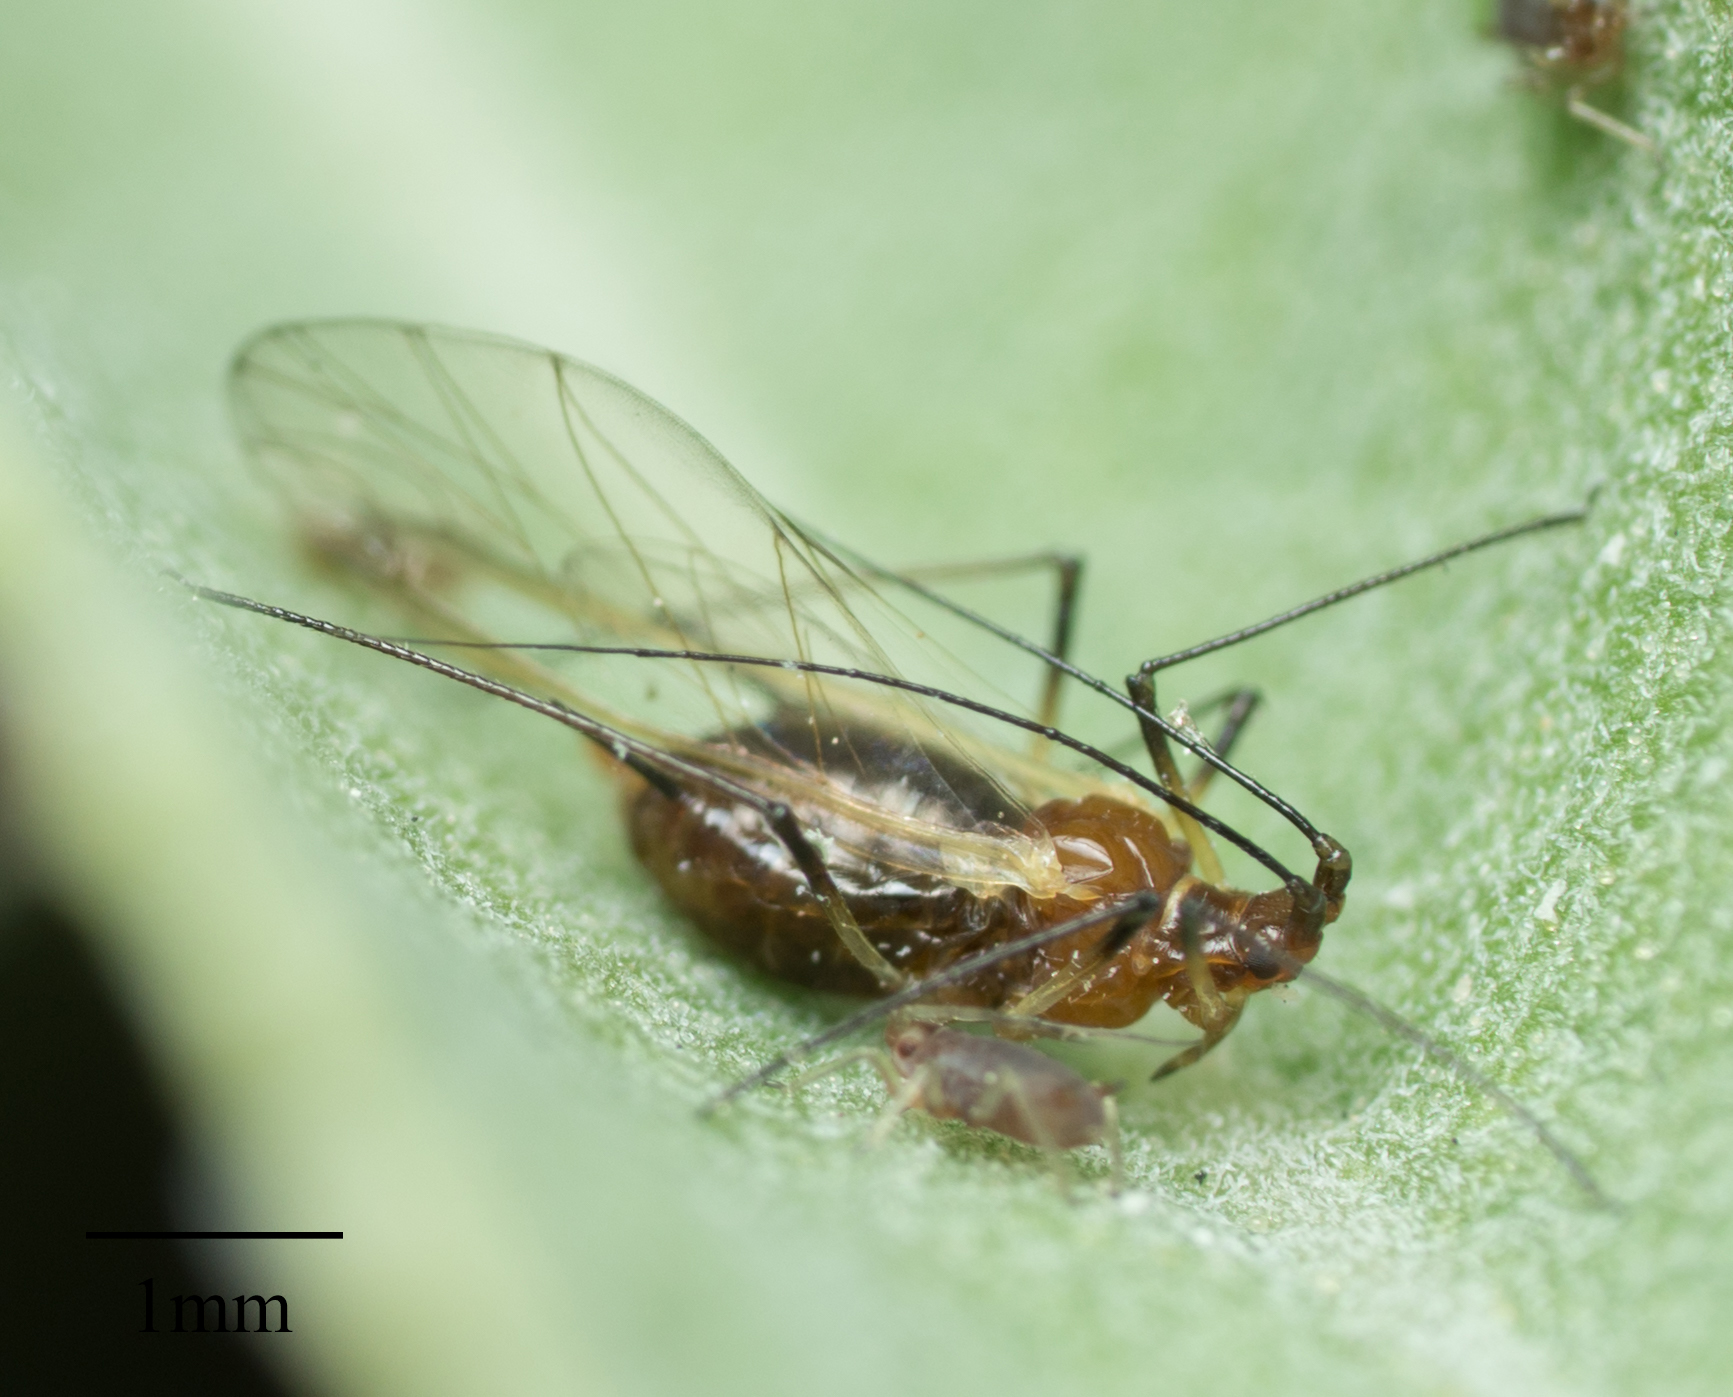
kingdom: Animalia
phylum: Arthropoda
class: Insecta
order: Hemiptera
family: Aphididae
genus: Macrosiphum
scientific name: Macrosiphum salviae
